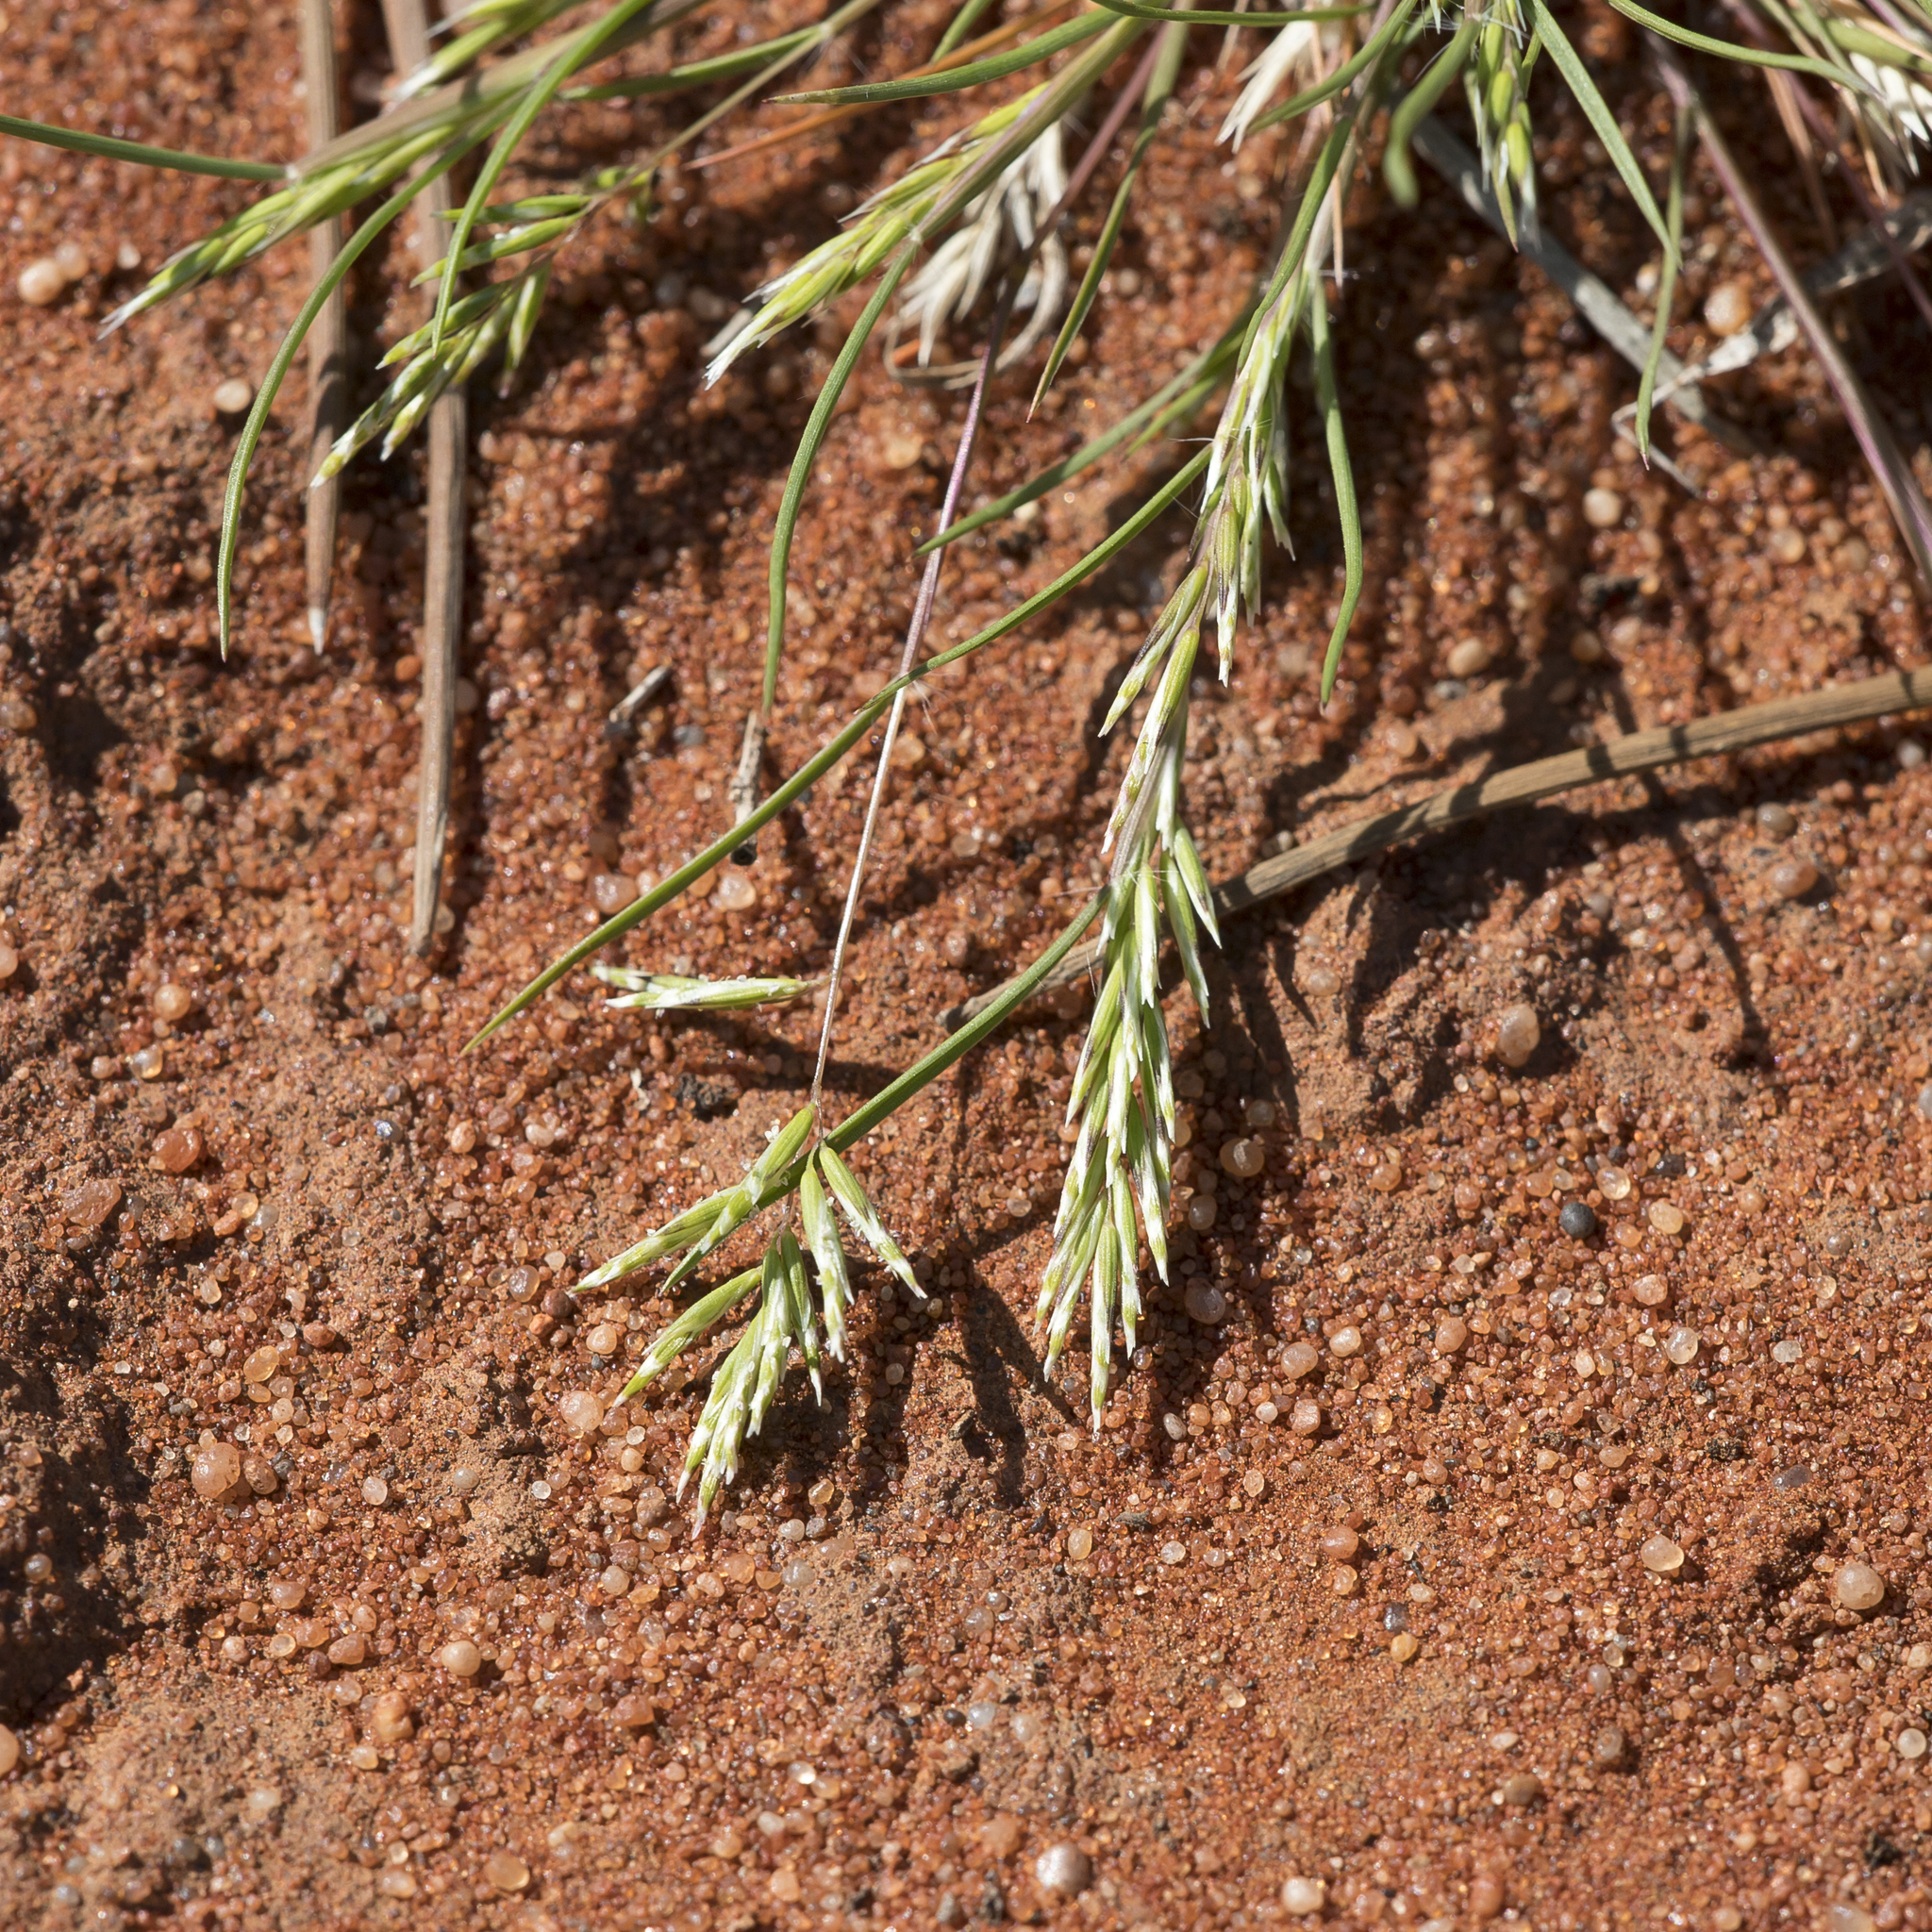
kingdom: Plantae
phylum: Tracheophyta
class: Liliopsida
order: Poales
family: Poaceae
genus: Schismus
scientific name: Schismus barbatus
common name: Kelch-grass
